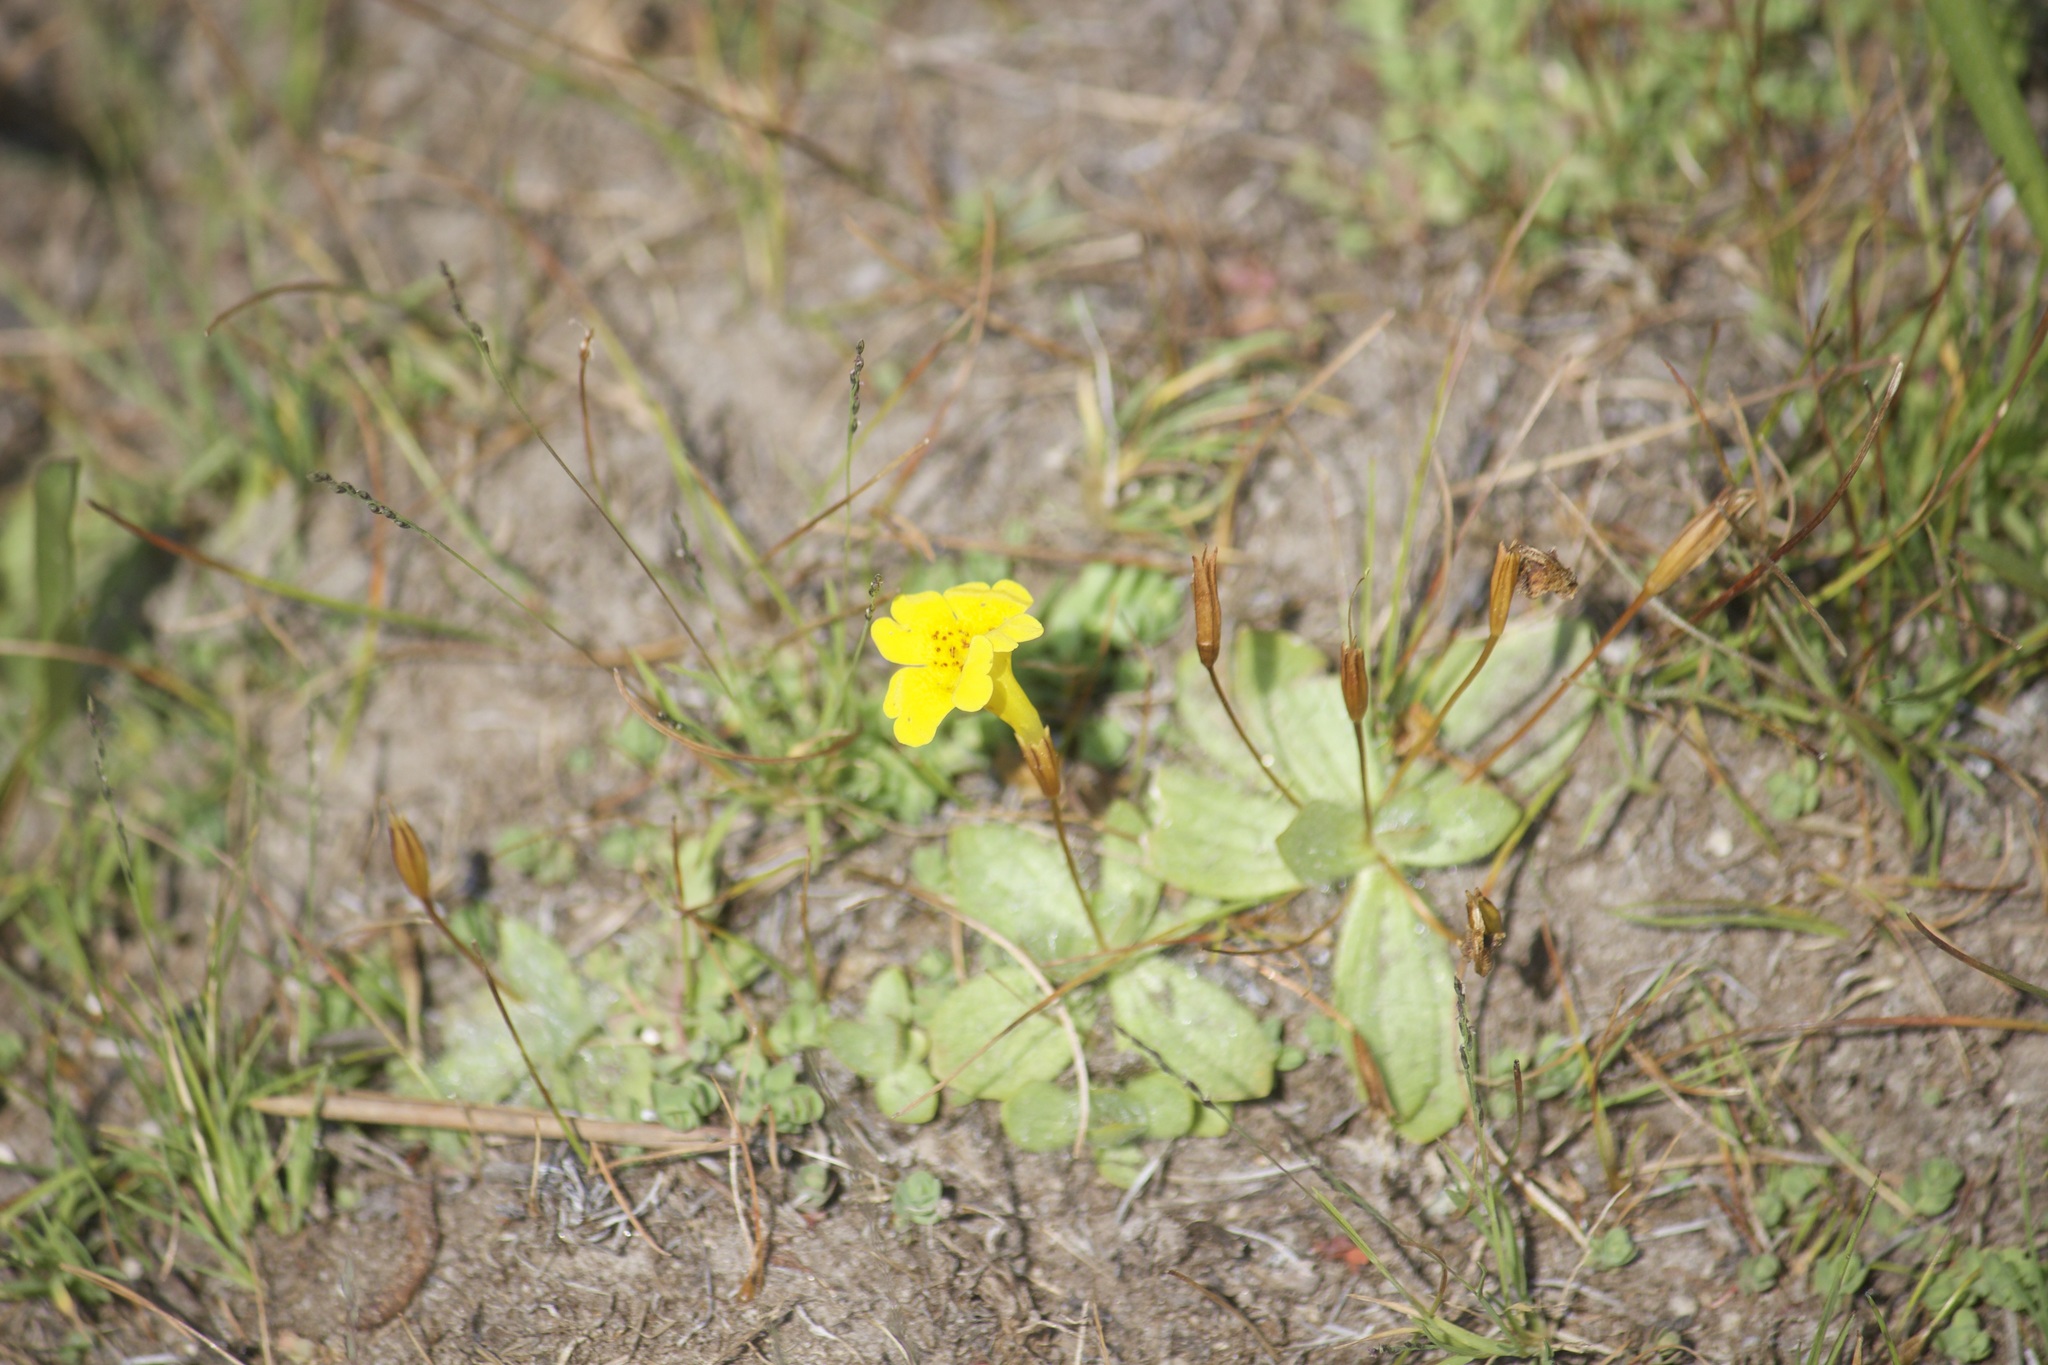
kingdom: Plantae
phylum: Tracheophyta
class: Magnoliopsida
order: Lamiales
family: Phrymaceae
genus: Erythranthe
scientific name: Erythranthe primuloides
